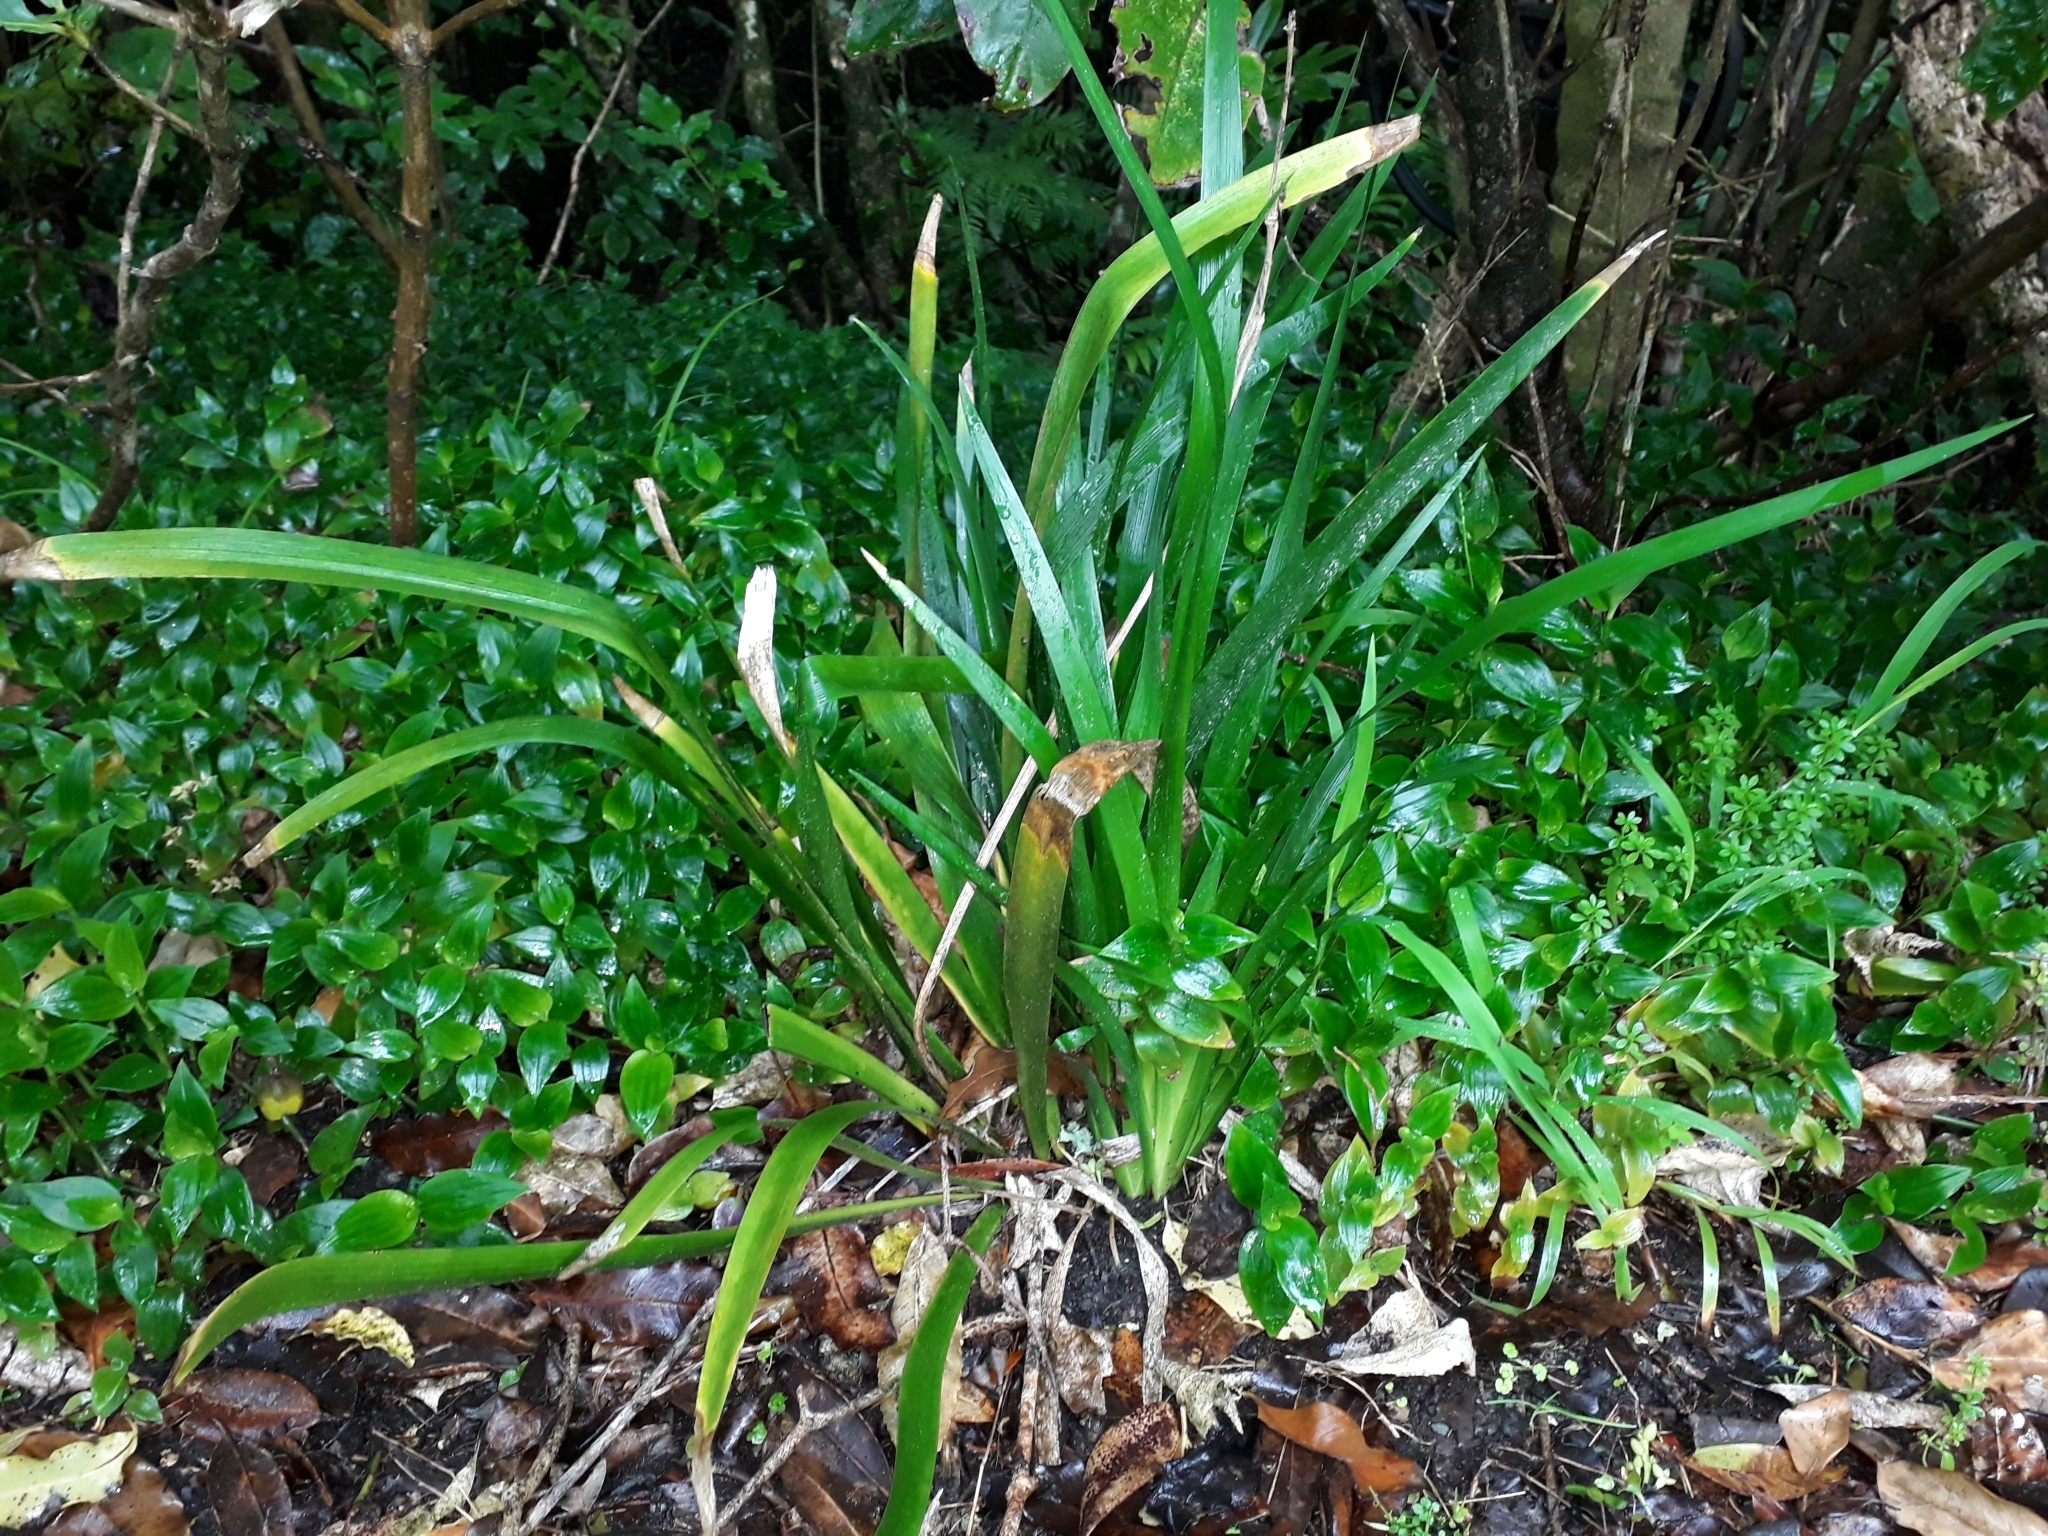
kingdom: Plantae
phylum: Tracheophyta
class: Liliopsida
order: Asparagales
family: Iridaceae
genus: Iris
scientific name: Iris foetidissima
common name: Stinking iris
